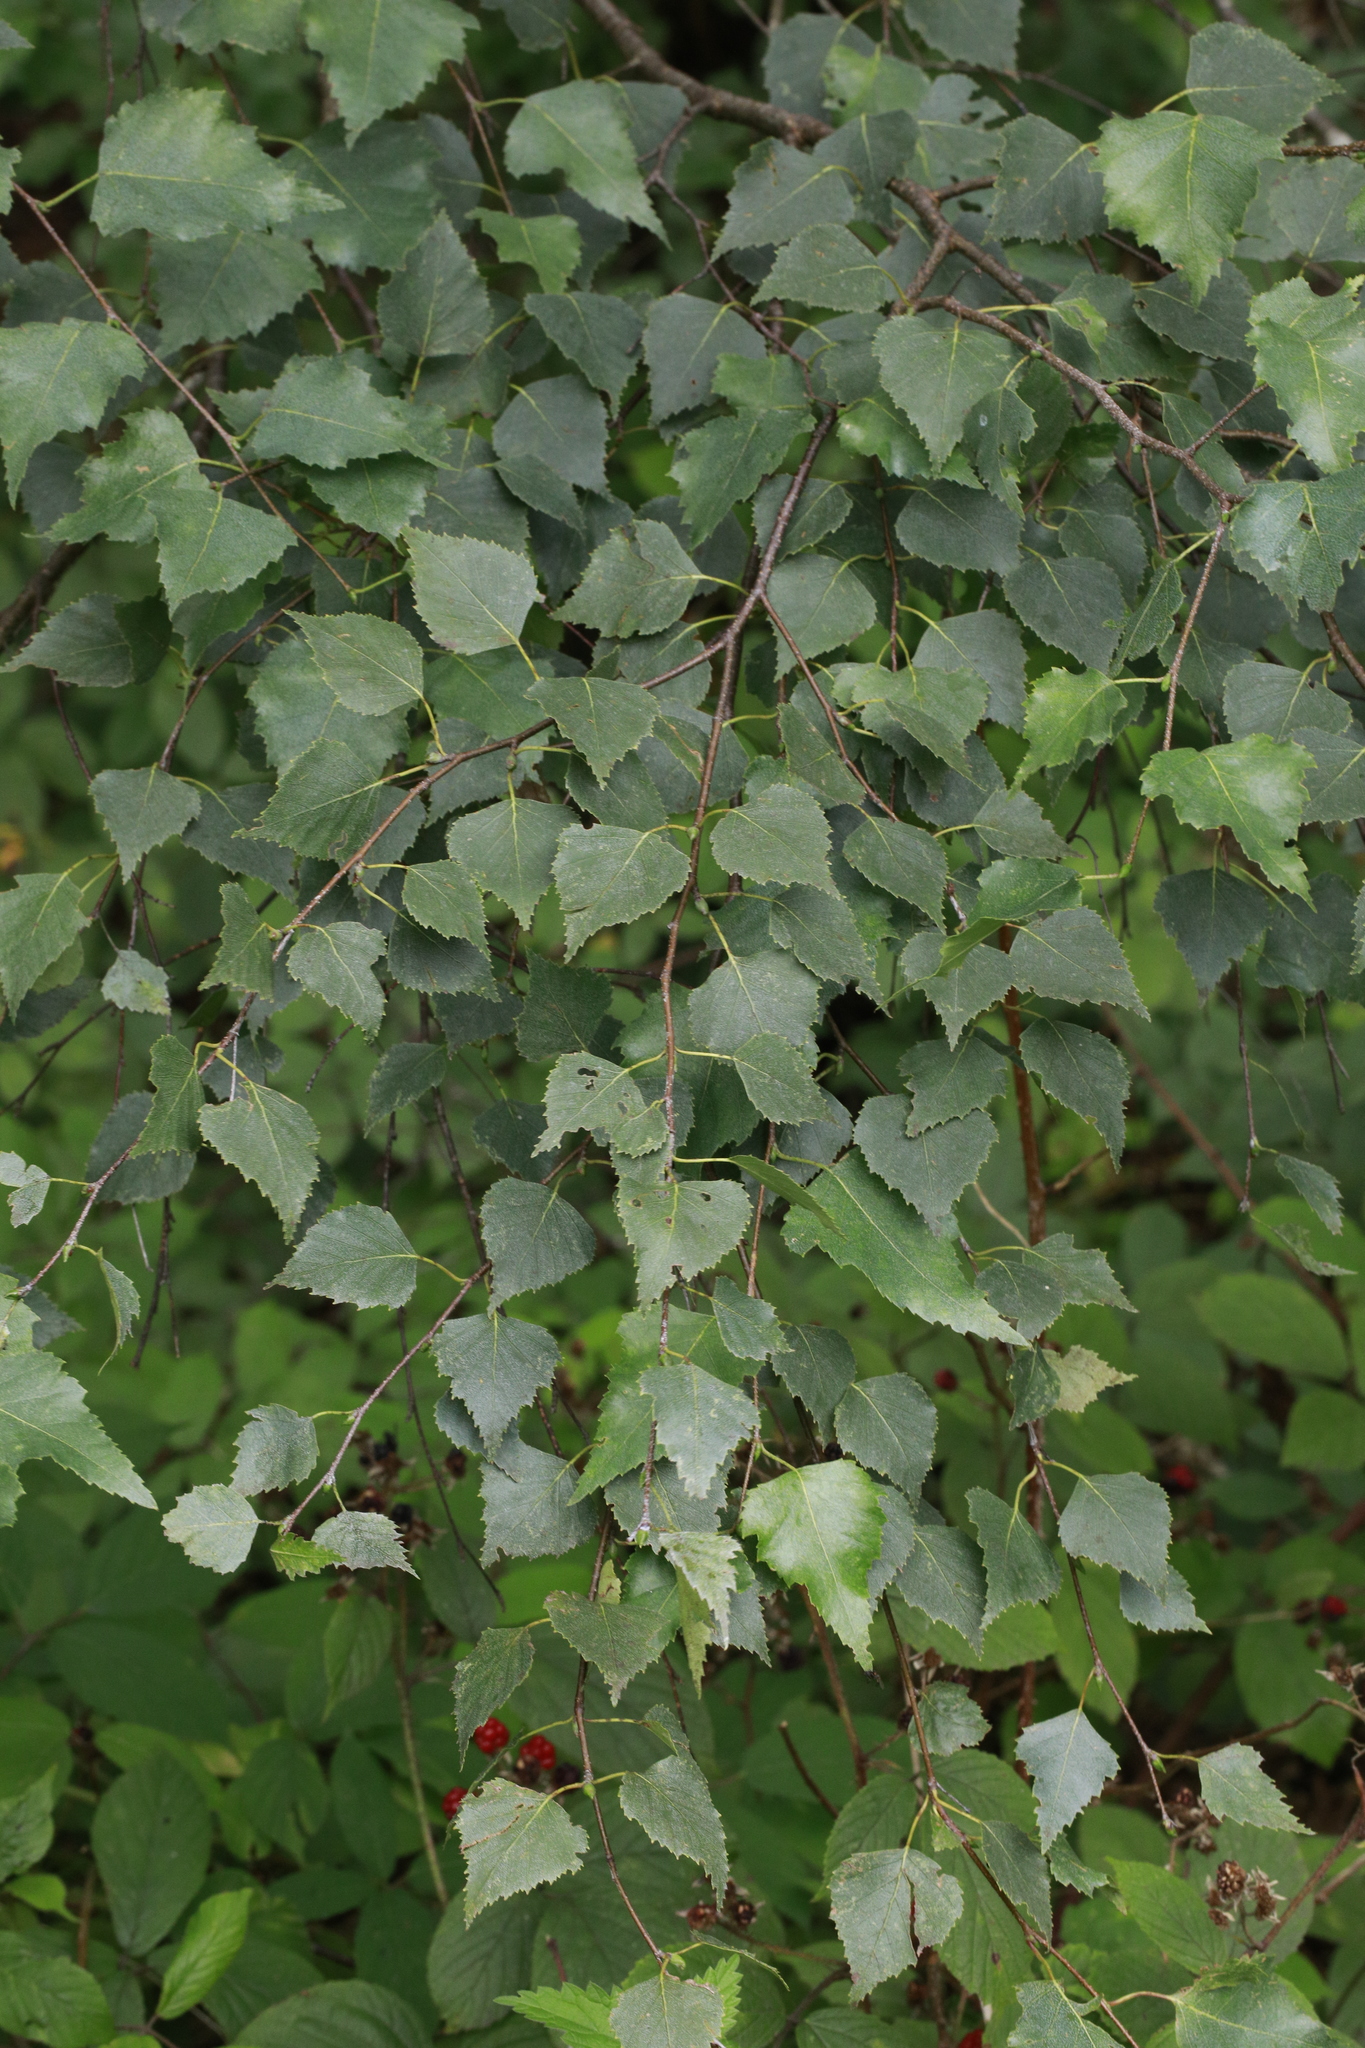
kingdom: Plantae
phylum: Tracheophyta
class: Magnoliopsida
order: Fagales
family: Betulaceae
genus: Betula
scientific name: Betula pendula
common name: Silver birch
